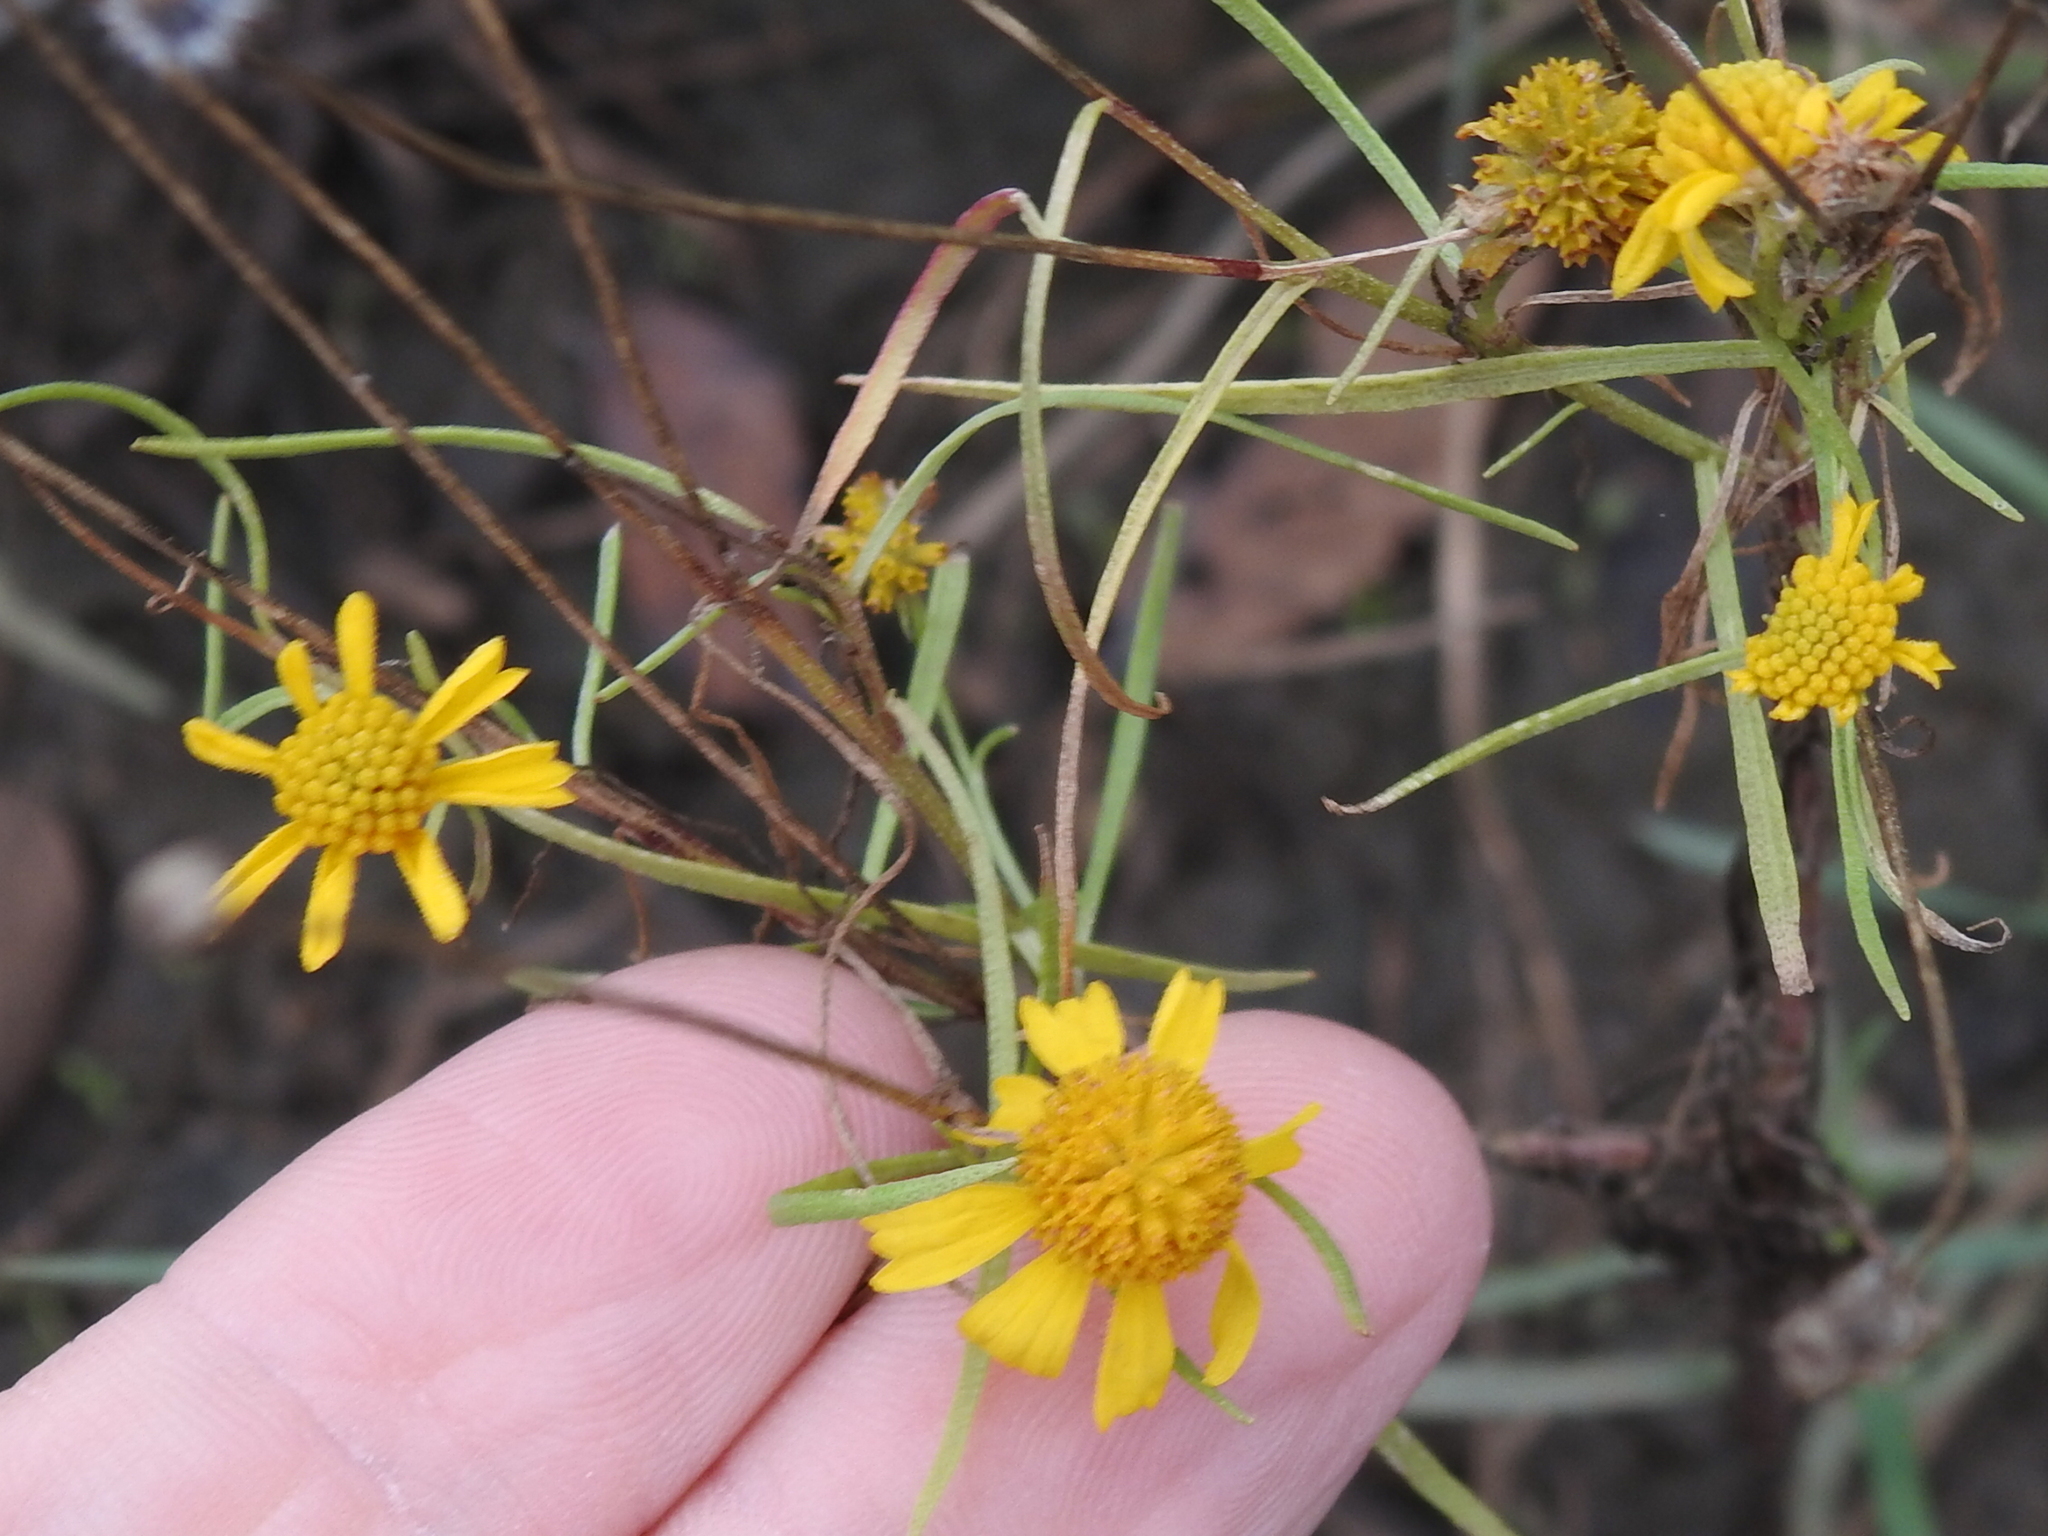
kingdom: Plantae
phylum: Tracheophyta
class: Magnoliopsida
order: Asterales
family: Asteraceae
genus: Helenium
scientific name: Helenium amarum
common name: Bitter sneezeweed
